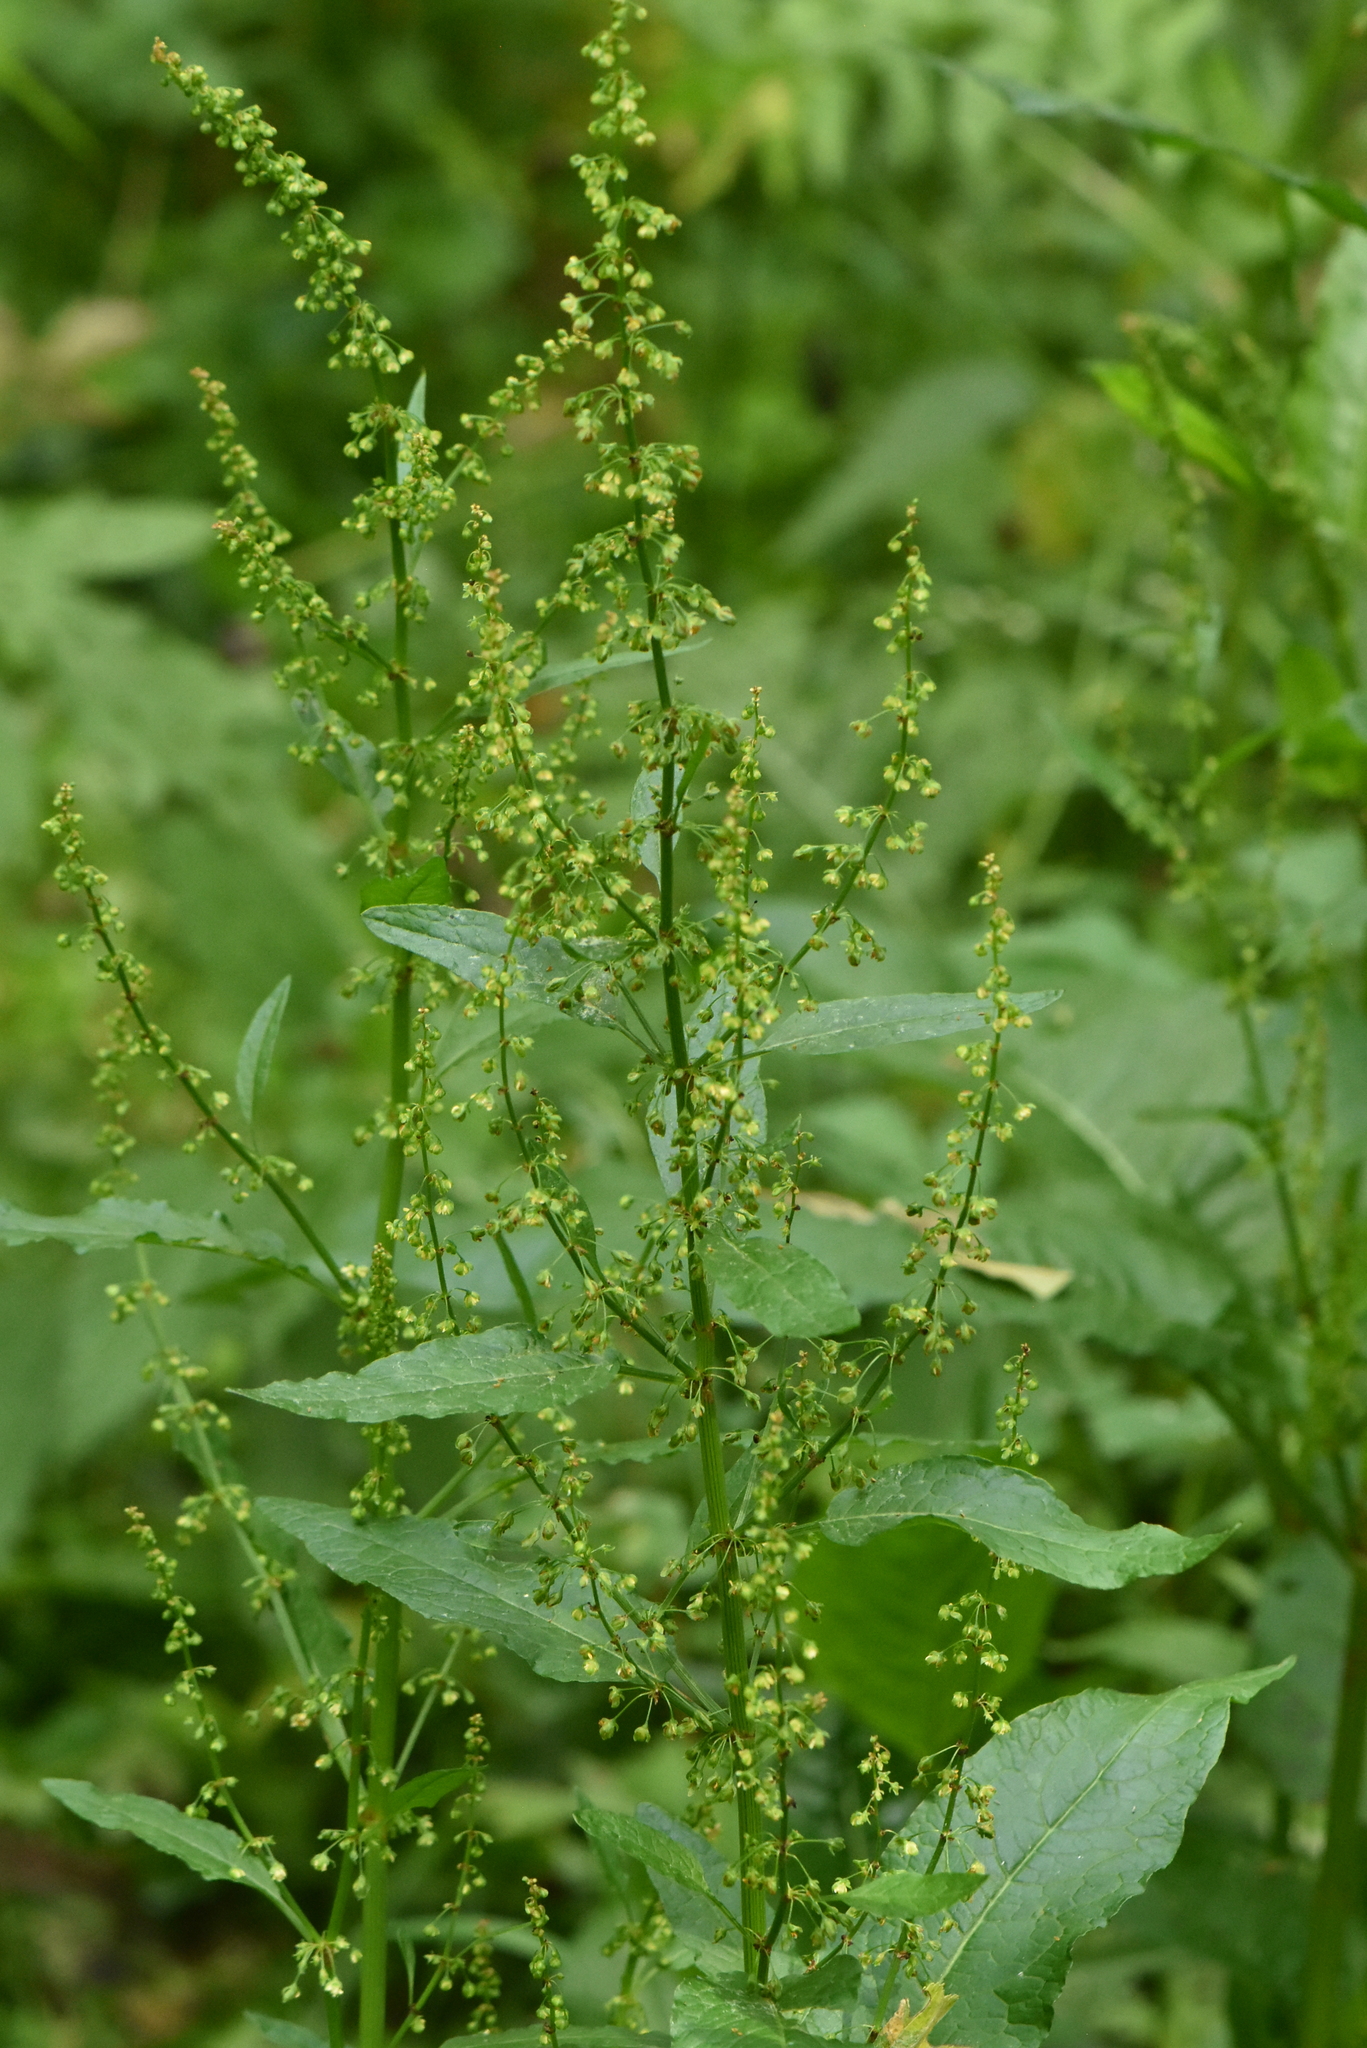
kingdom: Plantae
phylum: Tracheophyta
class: Magnoliopsida
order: Caryophyllales
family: Polygonaceae
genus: Rumex
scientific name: Rumex obtusifolius
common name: Bitter dock
